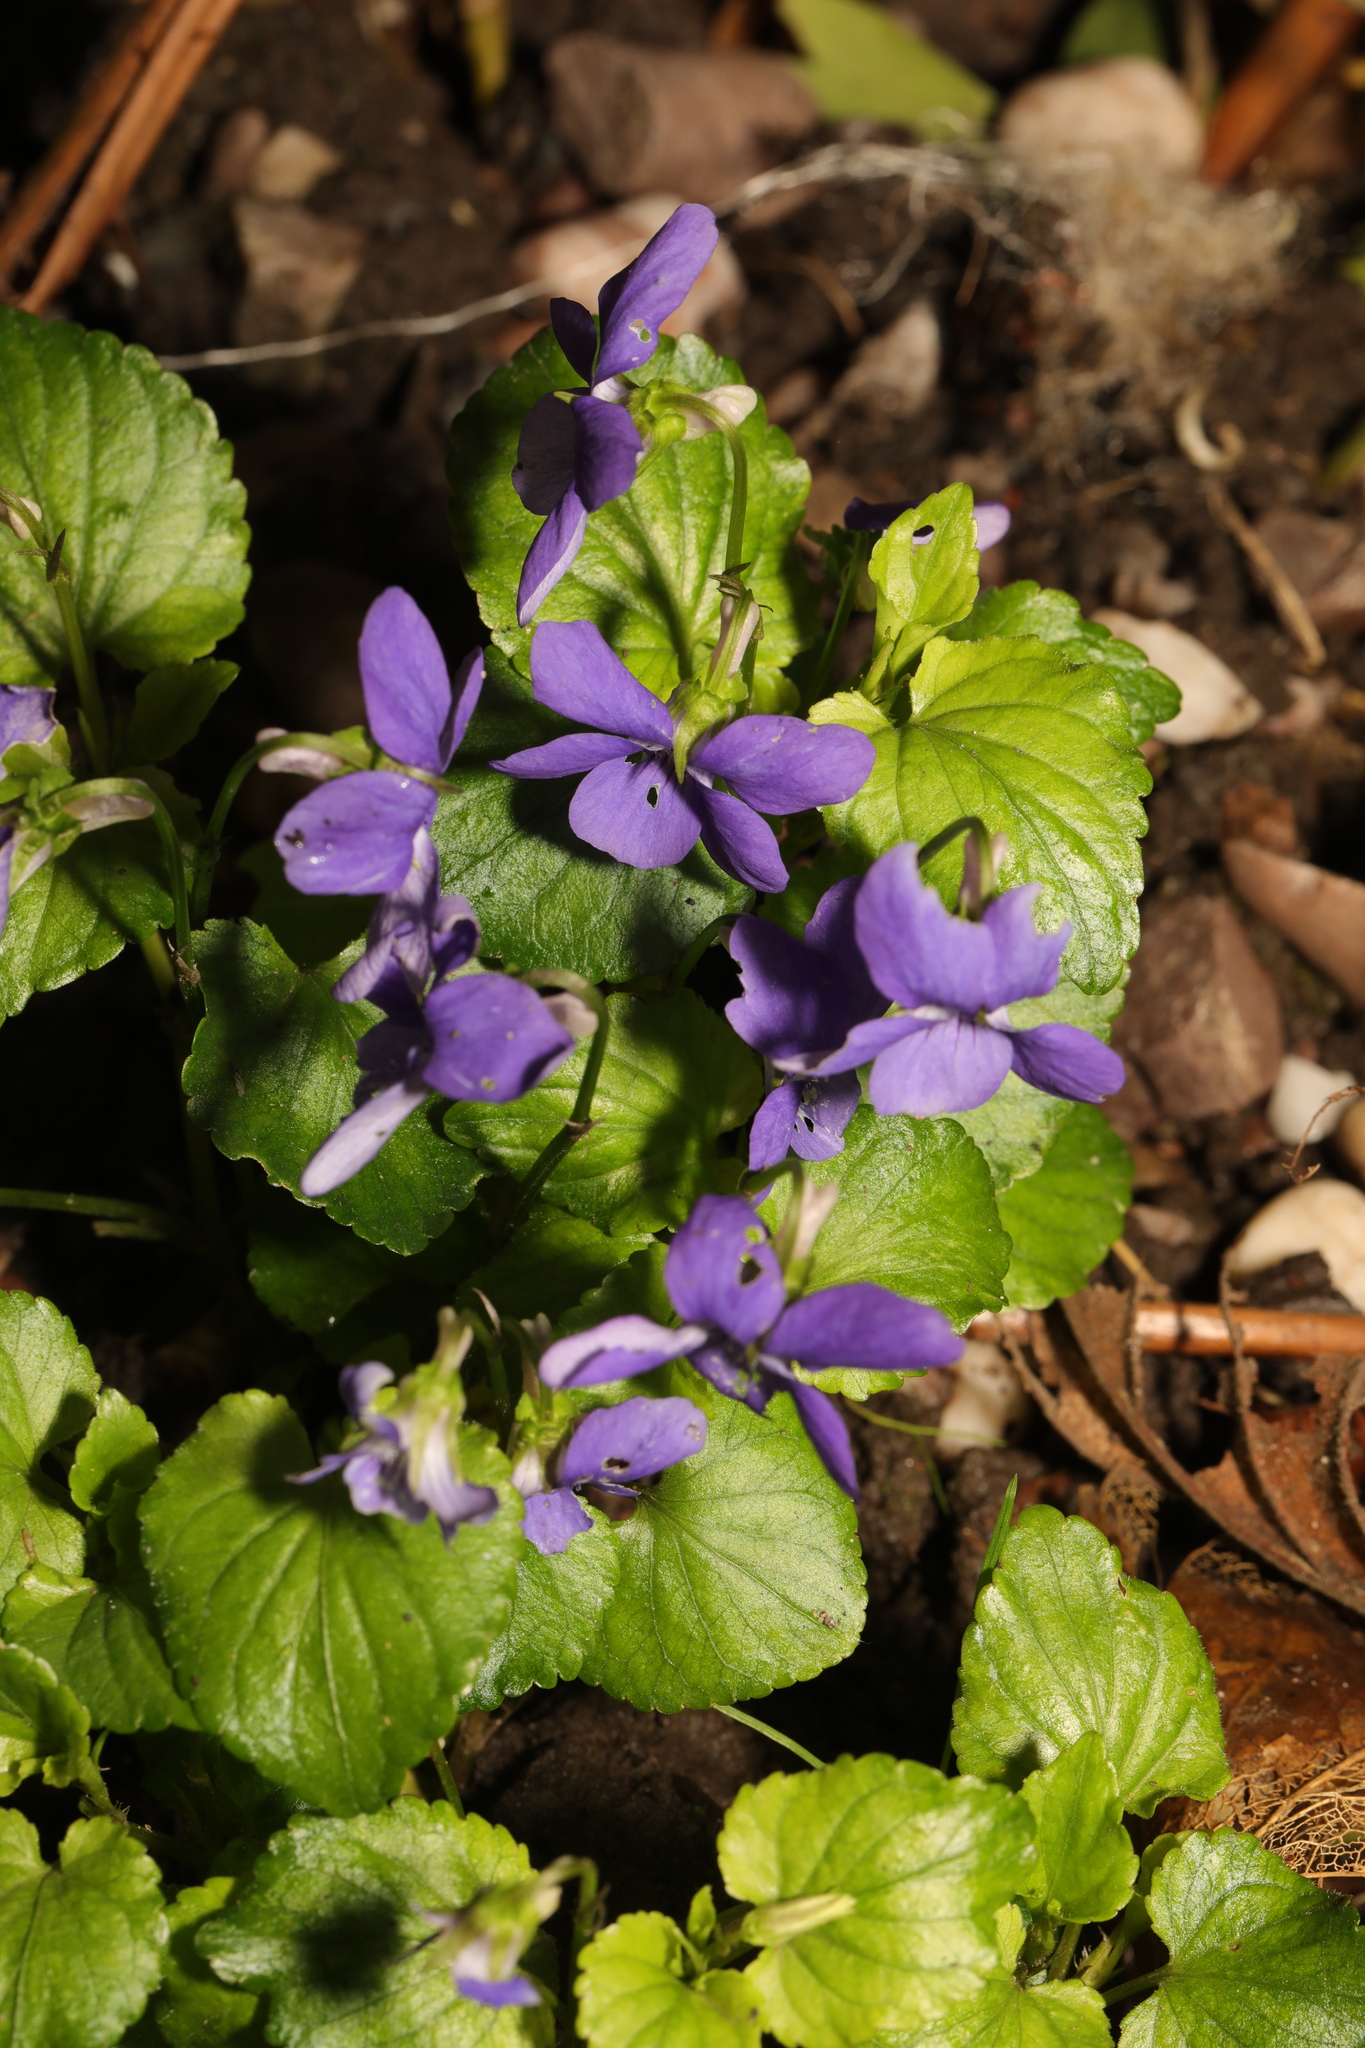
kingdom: Plantae
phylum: Tracheophyta
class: Magnoliopsida
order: Malpighiales
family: Violaceae
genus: Viola
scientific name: Viola odorata
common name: Sweet violet
